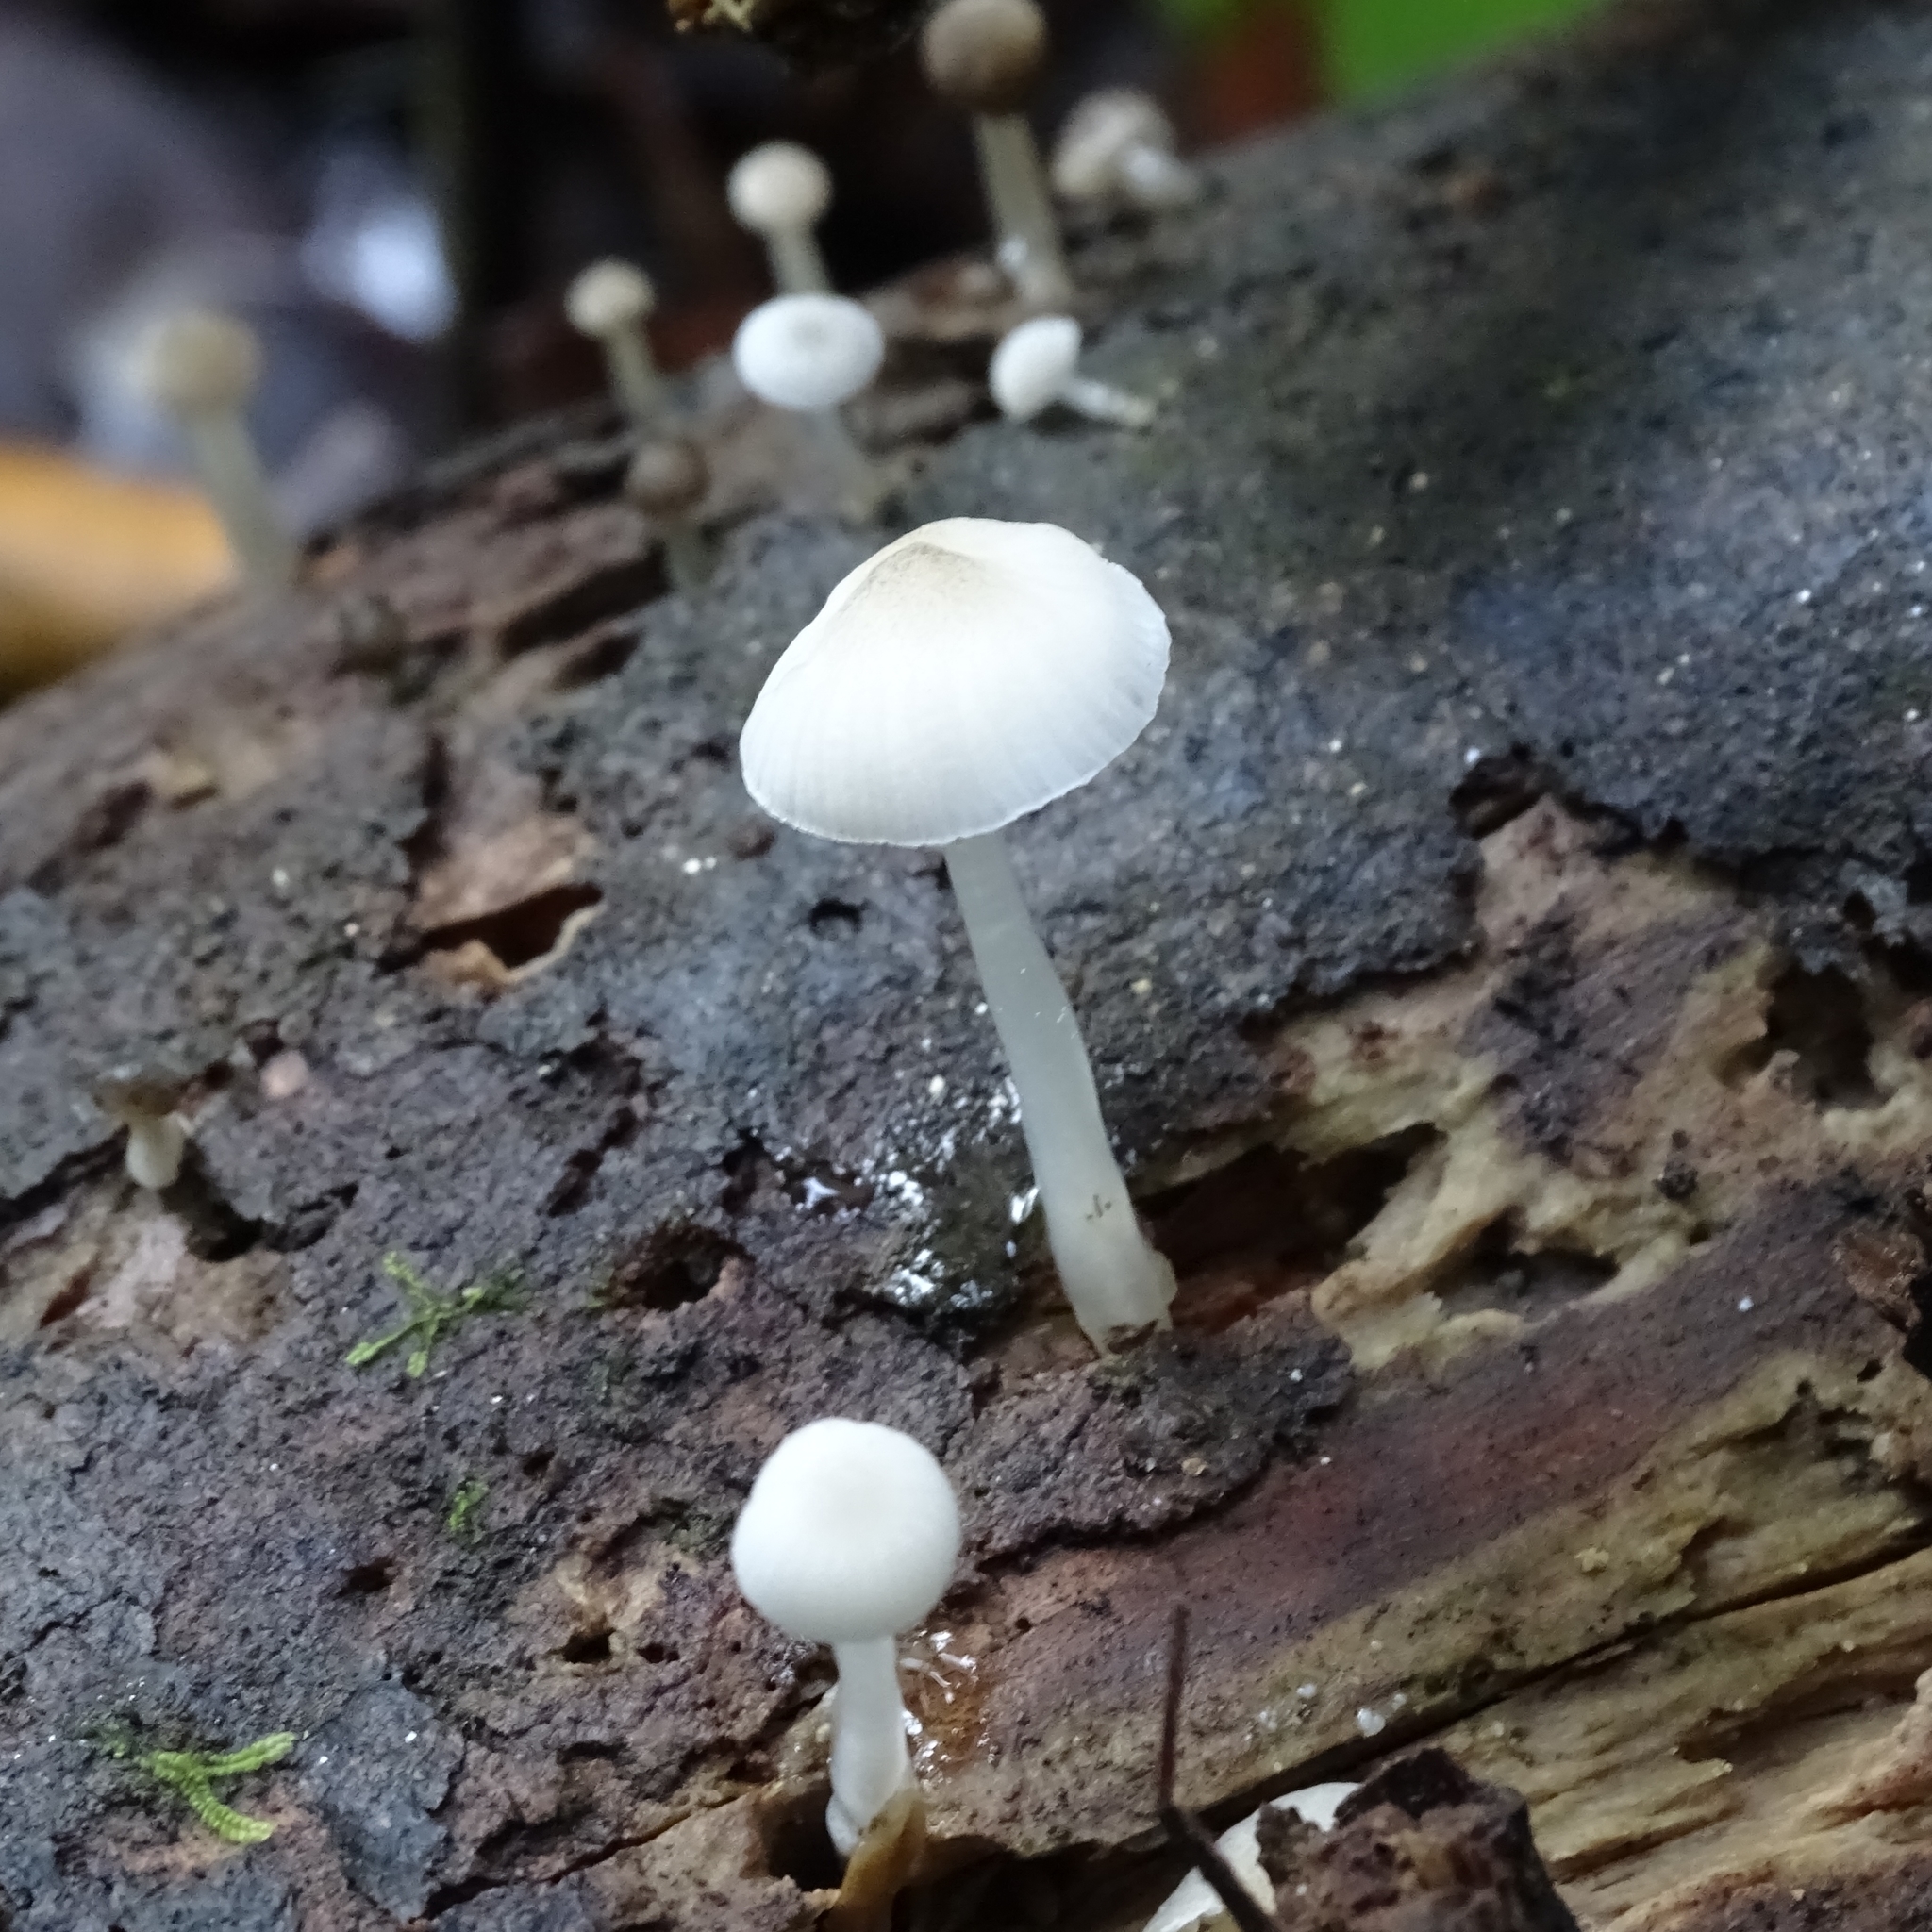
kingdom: Fungi
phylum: Basidiomycota
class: Agaricomycetes
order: Agaricales
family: Mycenaceae
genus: Roridomyces
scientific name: Roridomyces austrororidus
